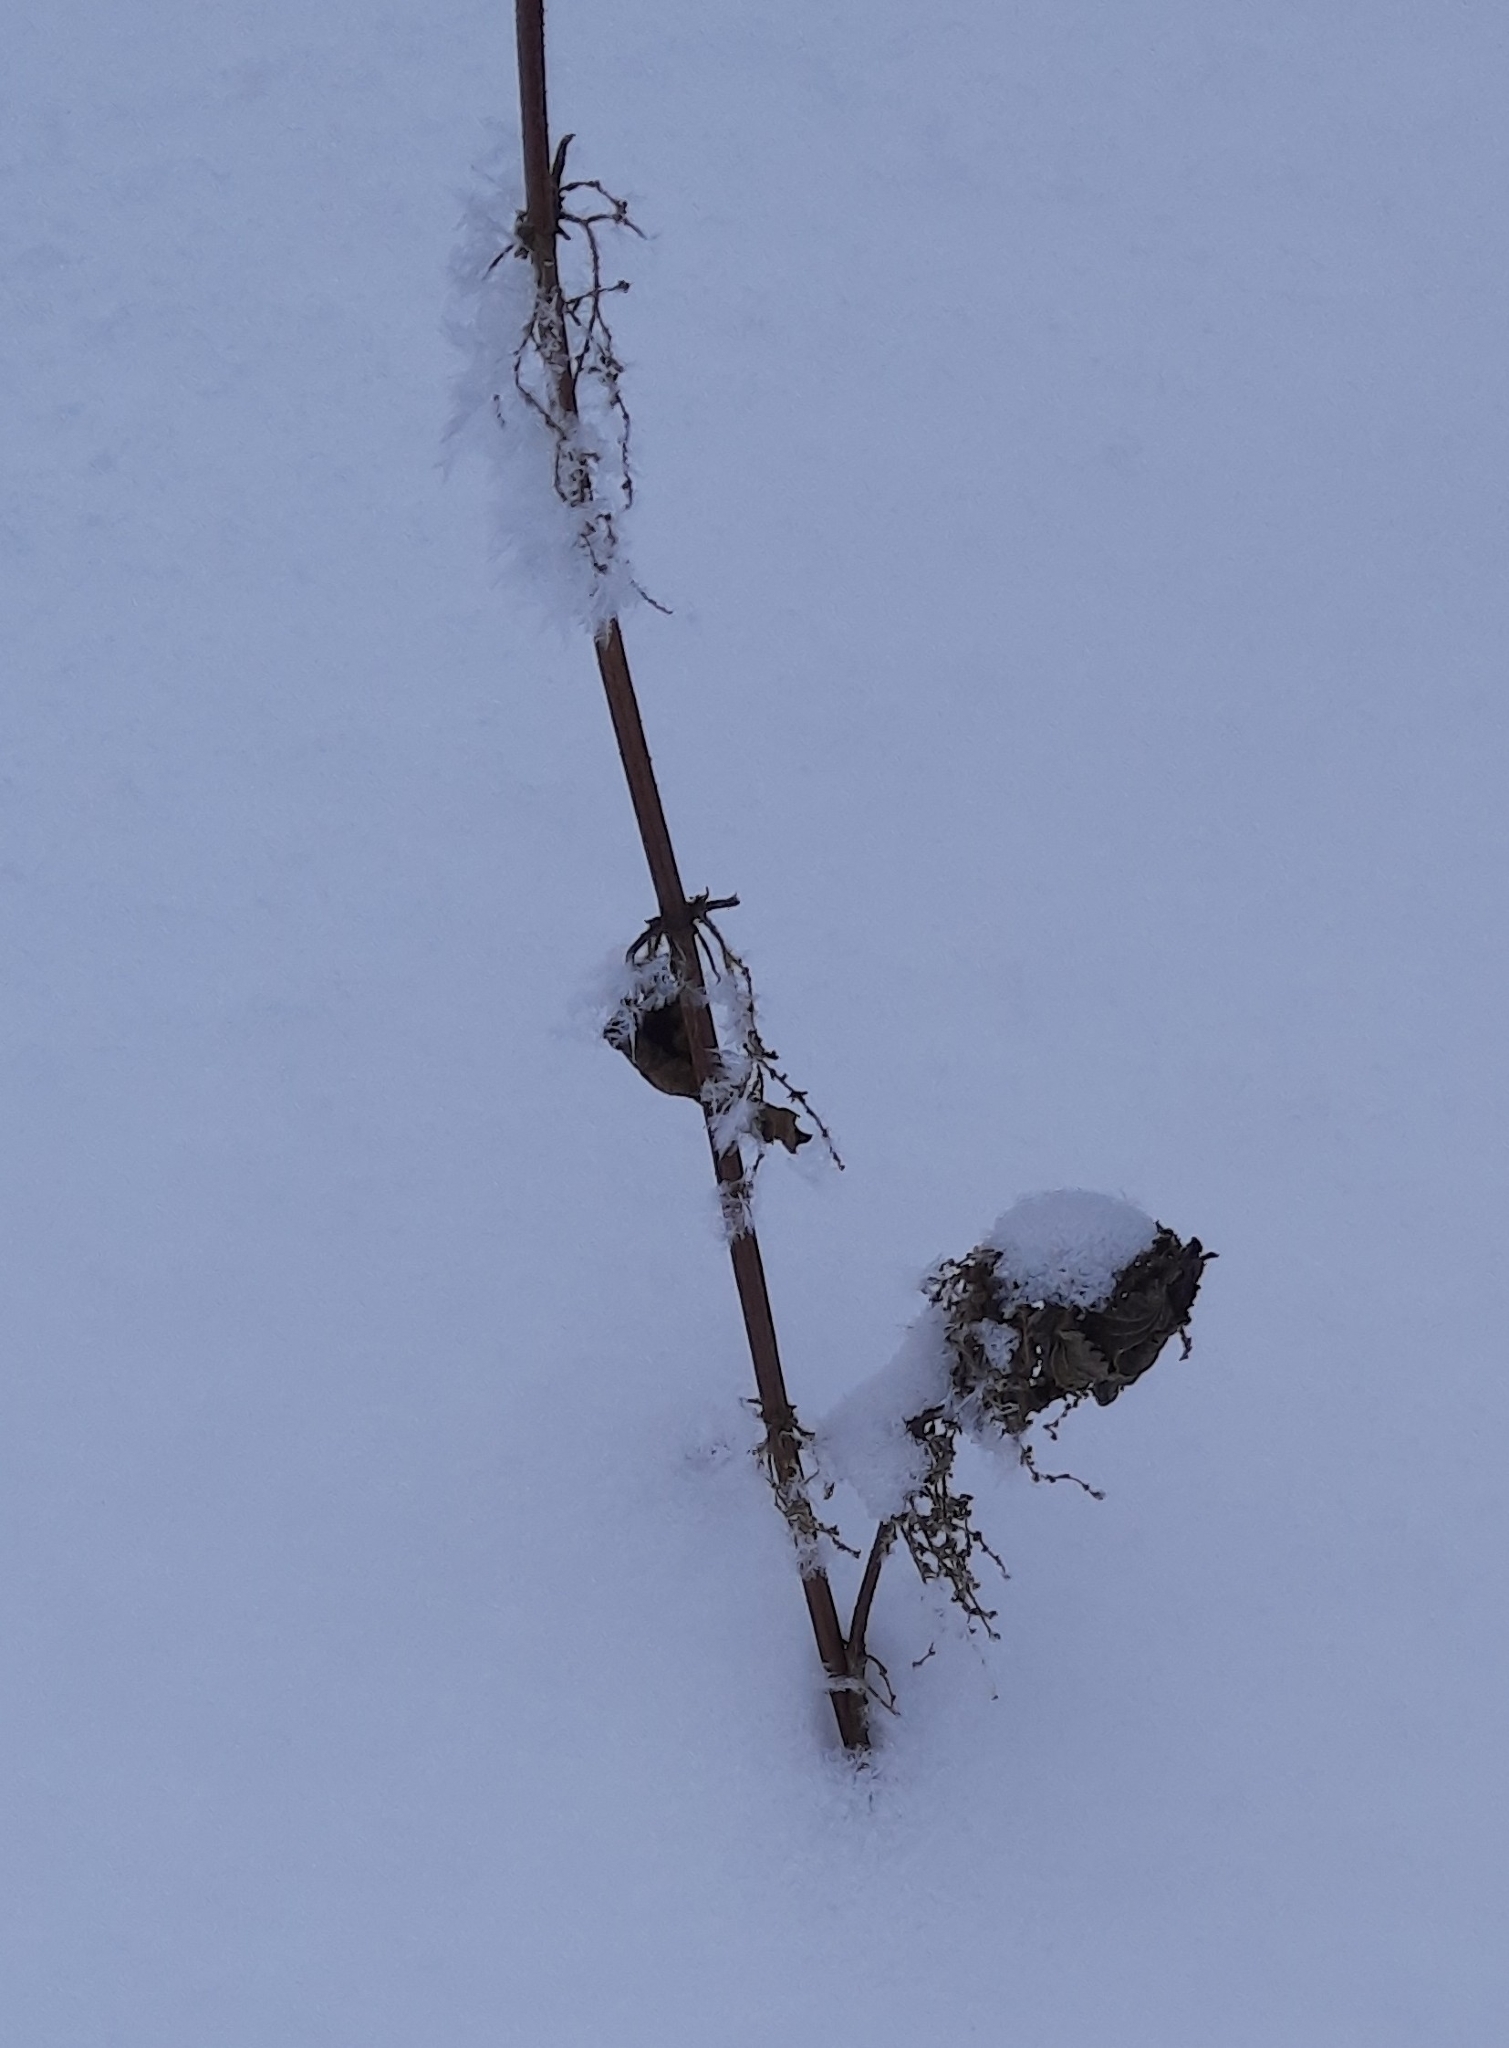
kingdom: Plantae
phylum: Tracheophyta
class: Magnoliopsida
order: Rosales
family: Urticaceae
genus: Urtica
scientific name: Urtica dioica
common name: Common nettle
